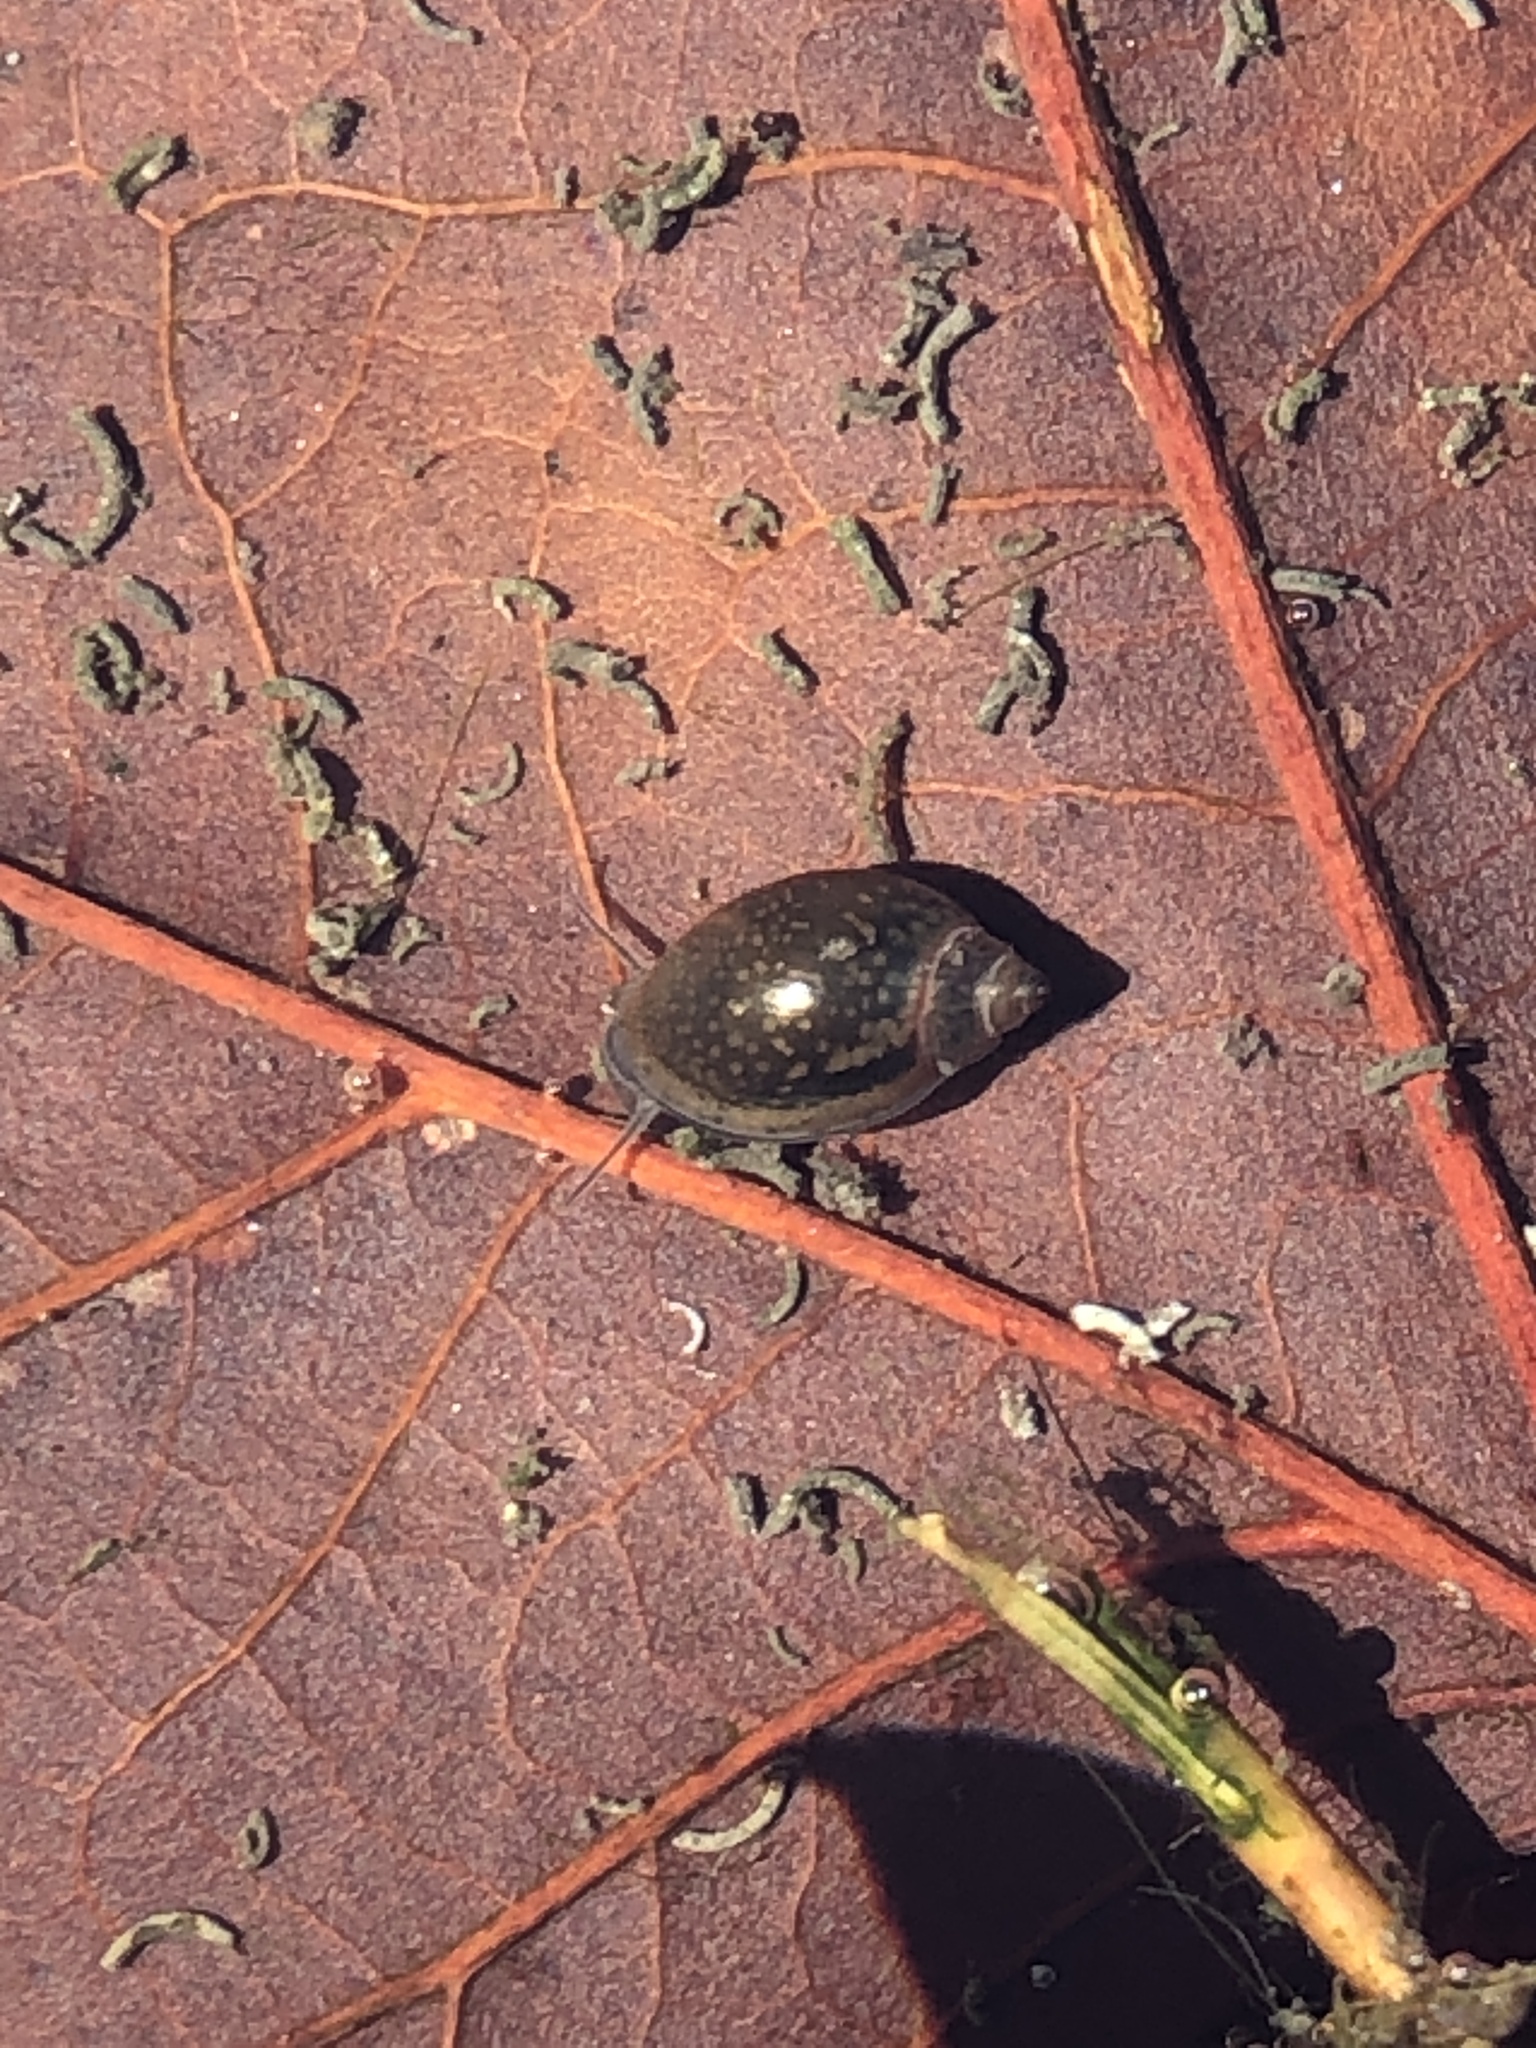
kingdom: Animalia
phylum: Mollusca
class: Gastropoda
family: Physidae
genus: Physella
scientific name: Physella acuta
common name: European physa
